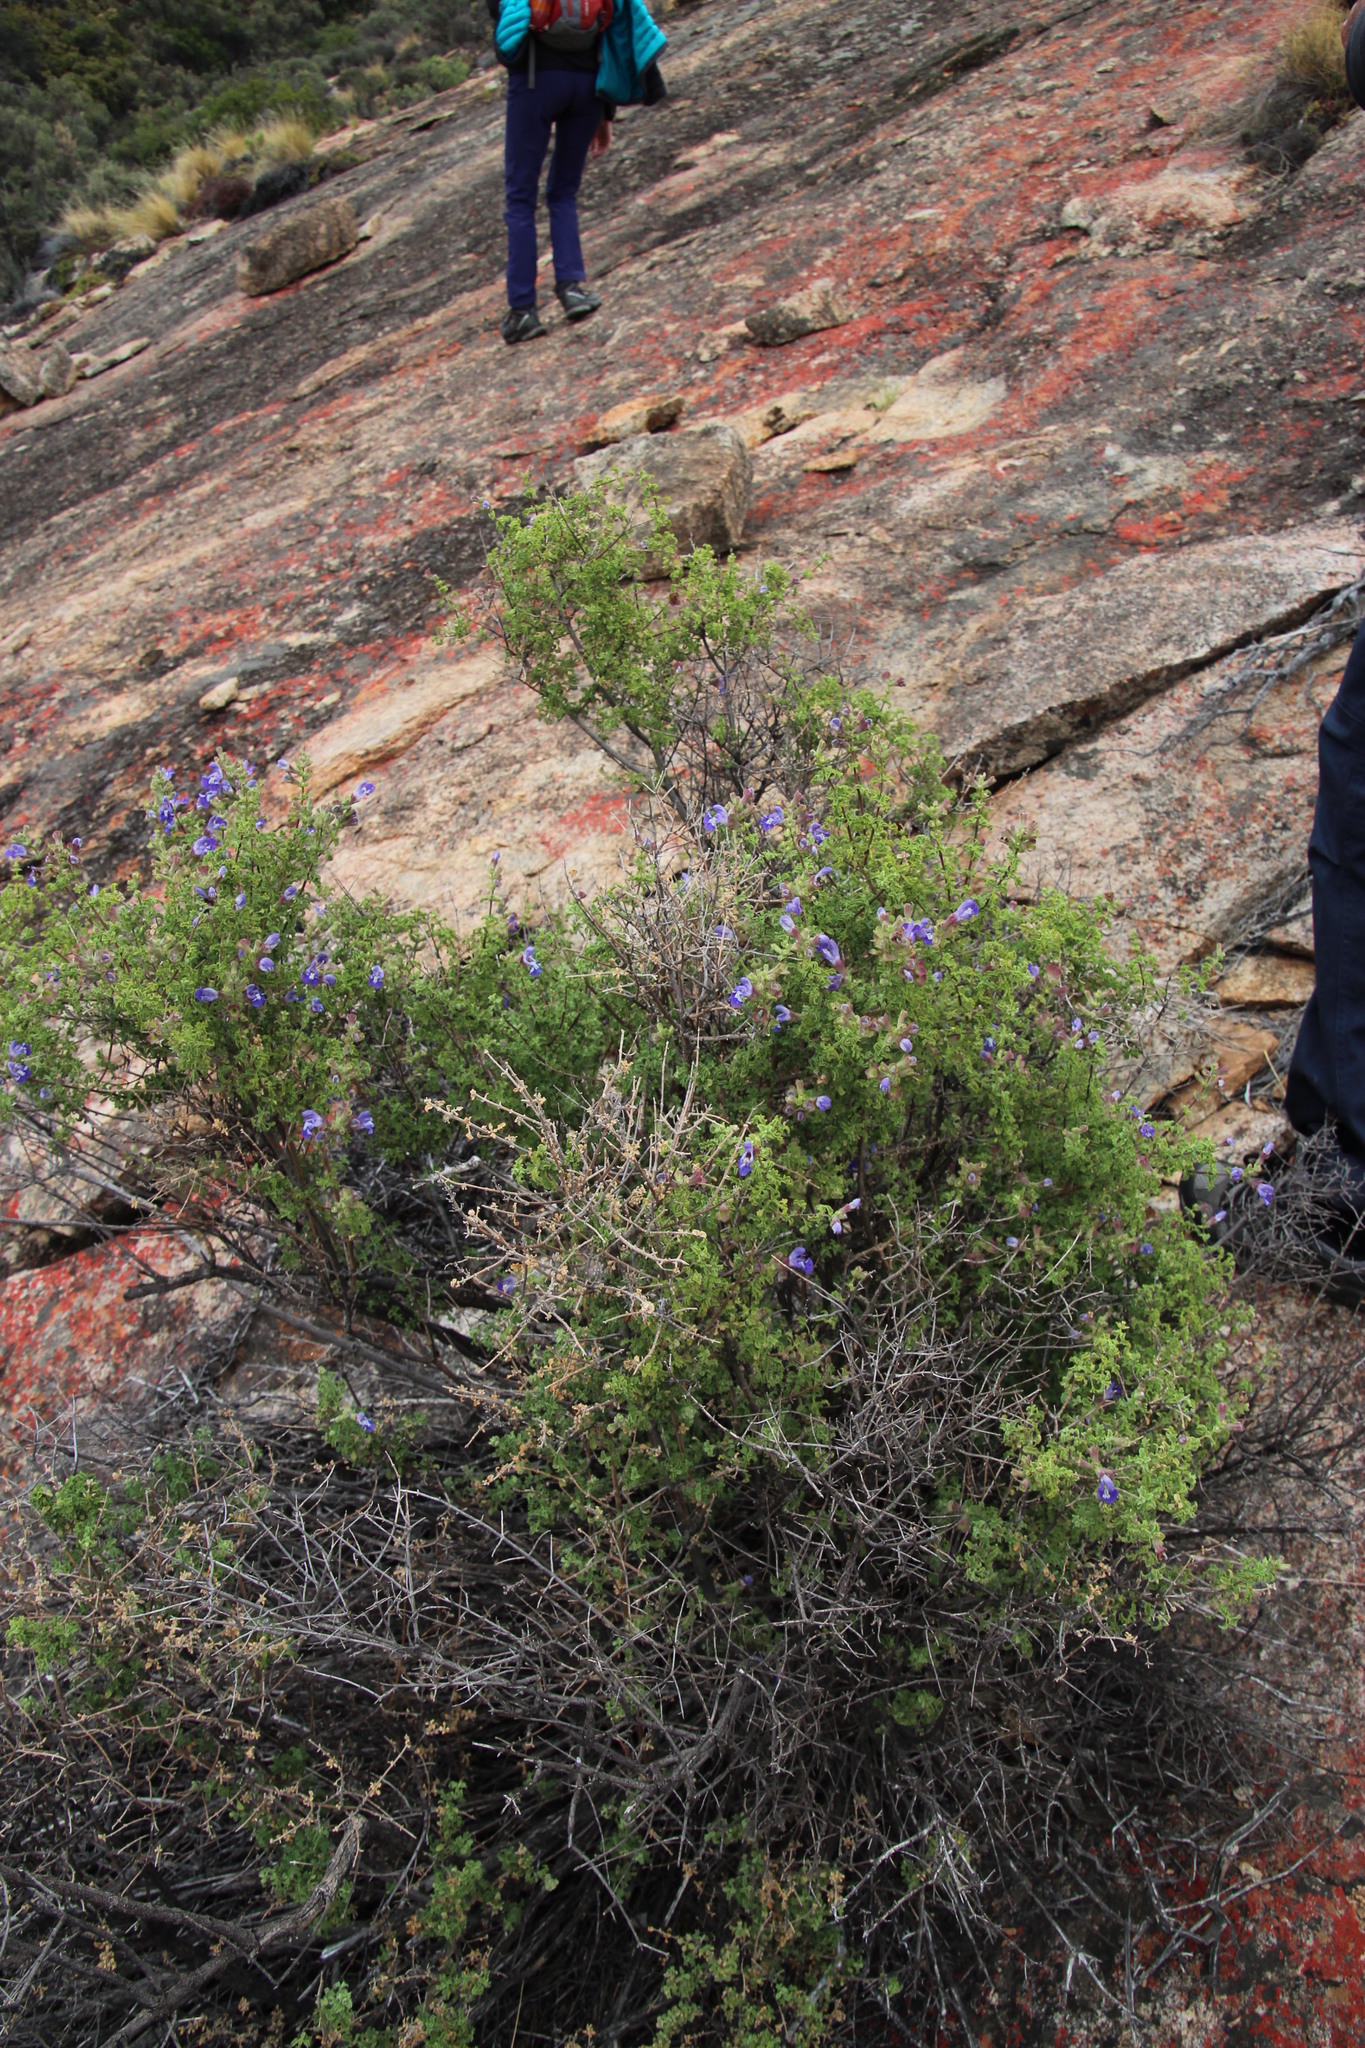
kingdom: Plantae
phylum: Tracheophyta
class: Magnoliopsida
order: Lamiales
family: Lamiaceae
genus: Salvia
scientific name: Salvia dentata
